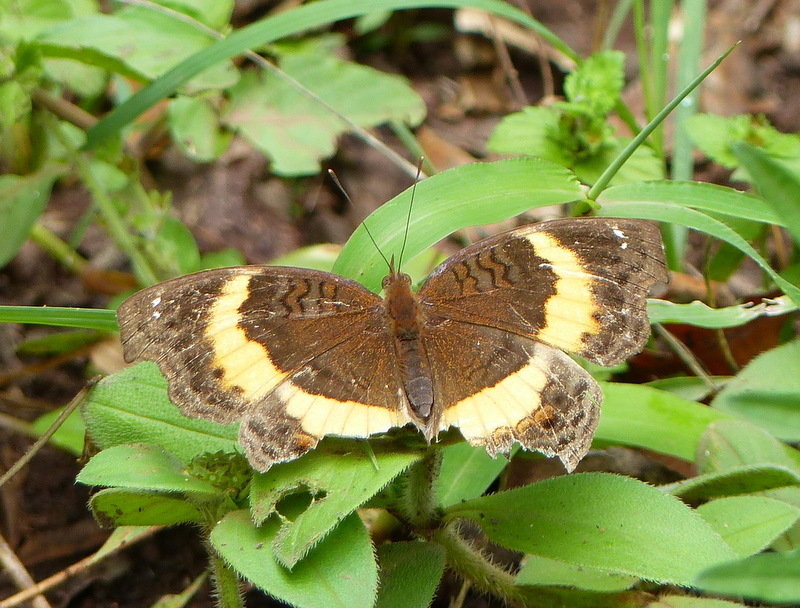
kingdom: Animalia
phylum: Arthropoda
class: Insecta
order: Lepidoptera
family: Nymphalidae
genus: Junonia
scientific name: Junonia terea
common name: Soldier pansy
